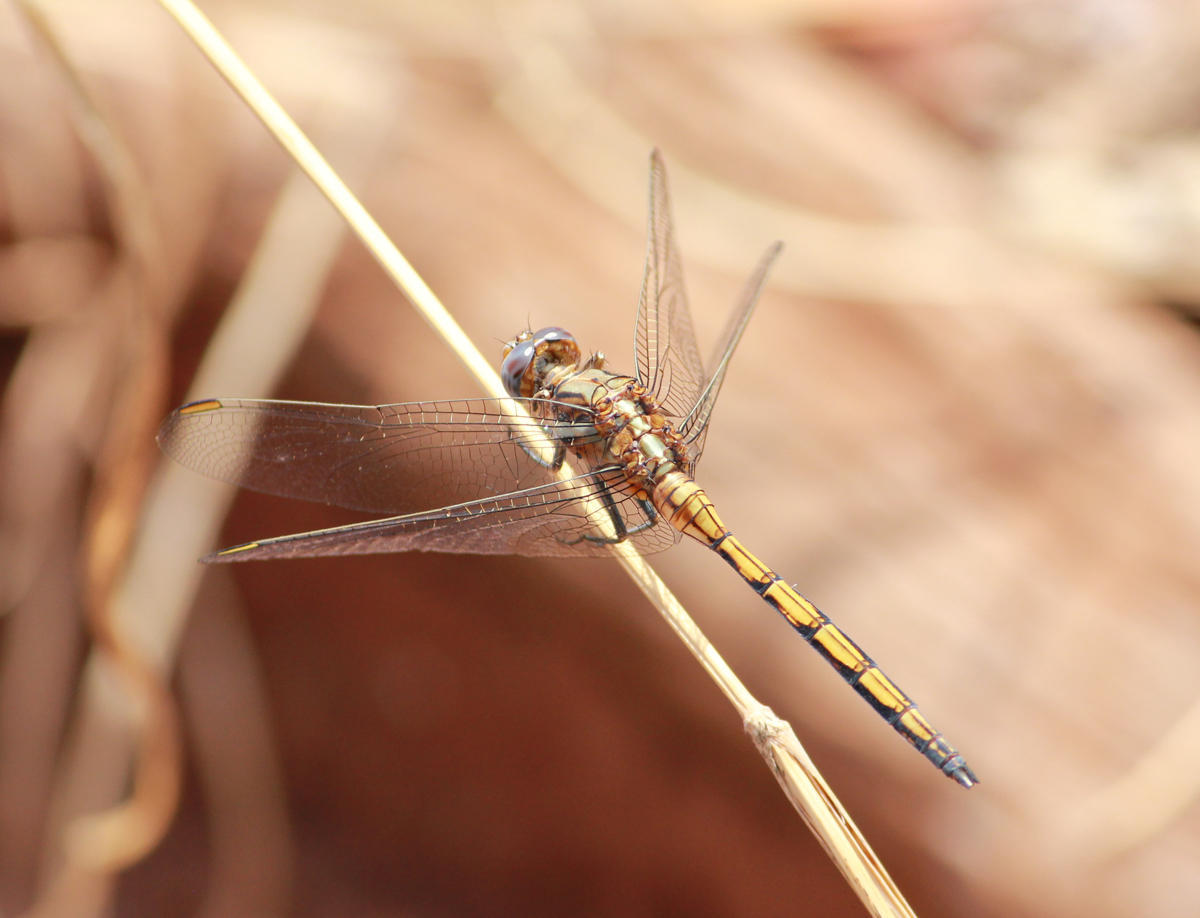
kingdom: Animalia
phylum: Arthropoda
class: Insecta
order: Odonata
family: Libellulidae
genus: Orthetrum
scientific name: Orthetrum chrysostigma
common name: Epaulet skimmer
